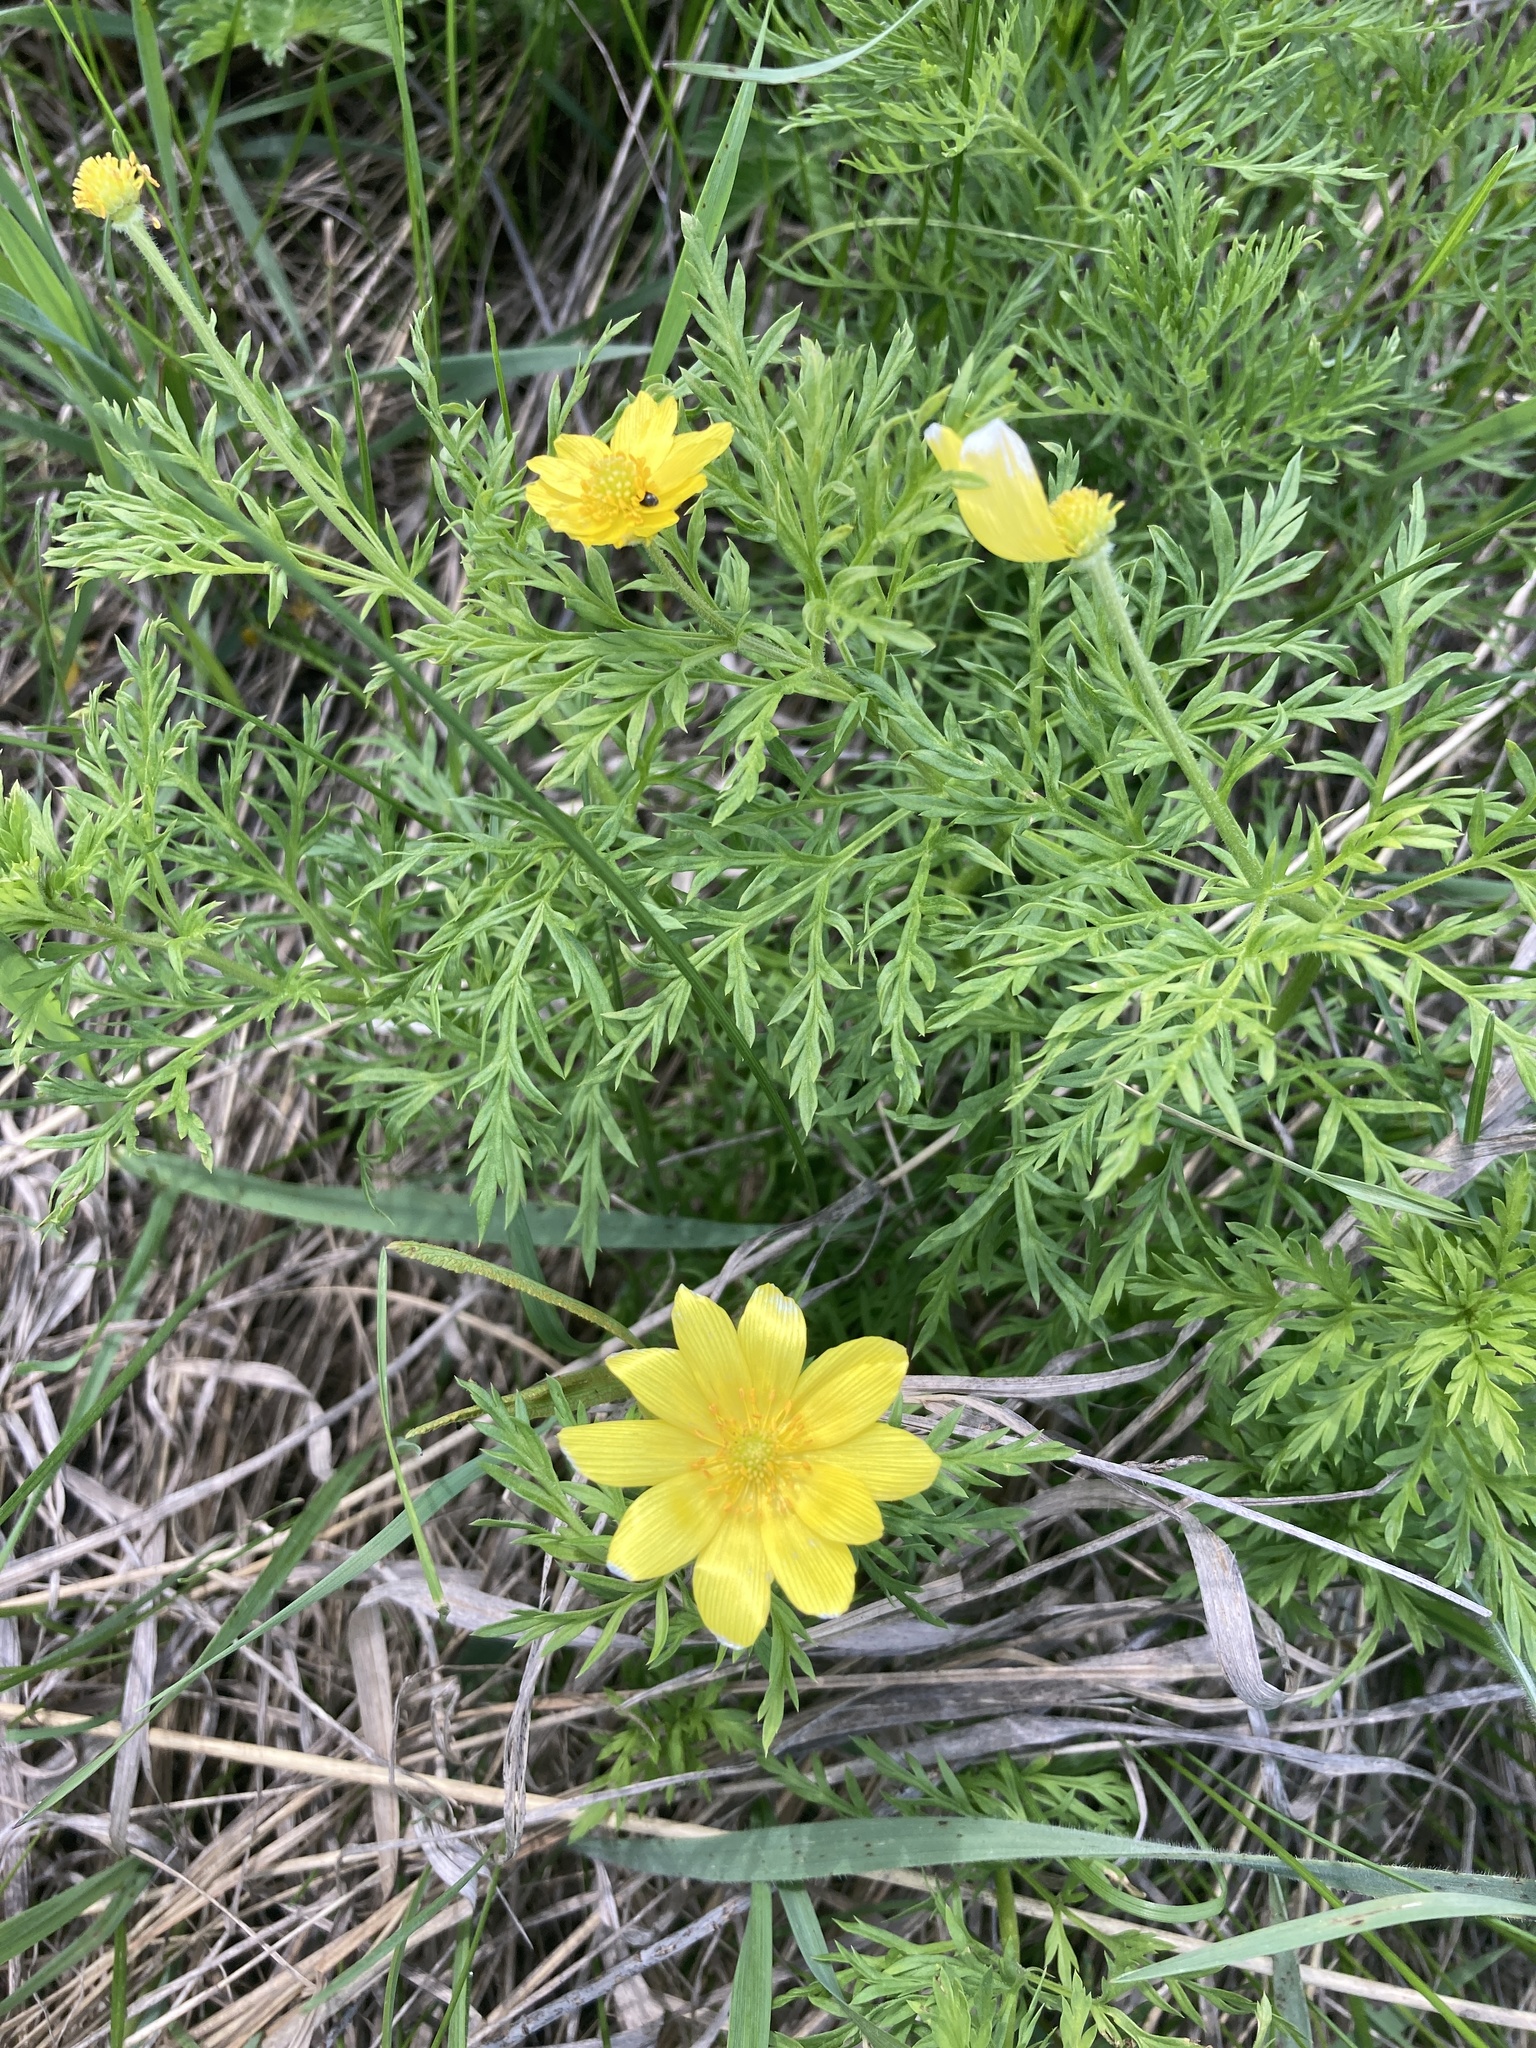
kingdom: Plantae
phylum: Tracheophyta
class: Magnoliopsida
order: Ranunculales
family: Ranunculaceae
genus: Adonis
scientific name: Adonis volgensis
